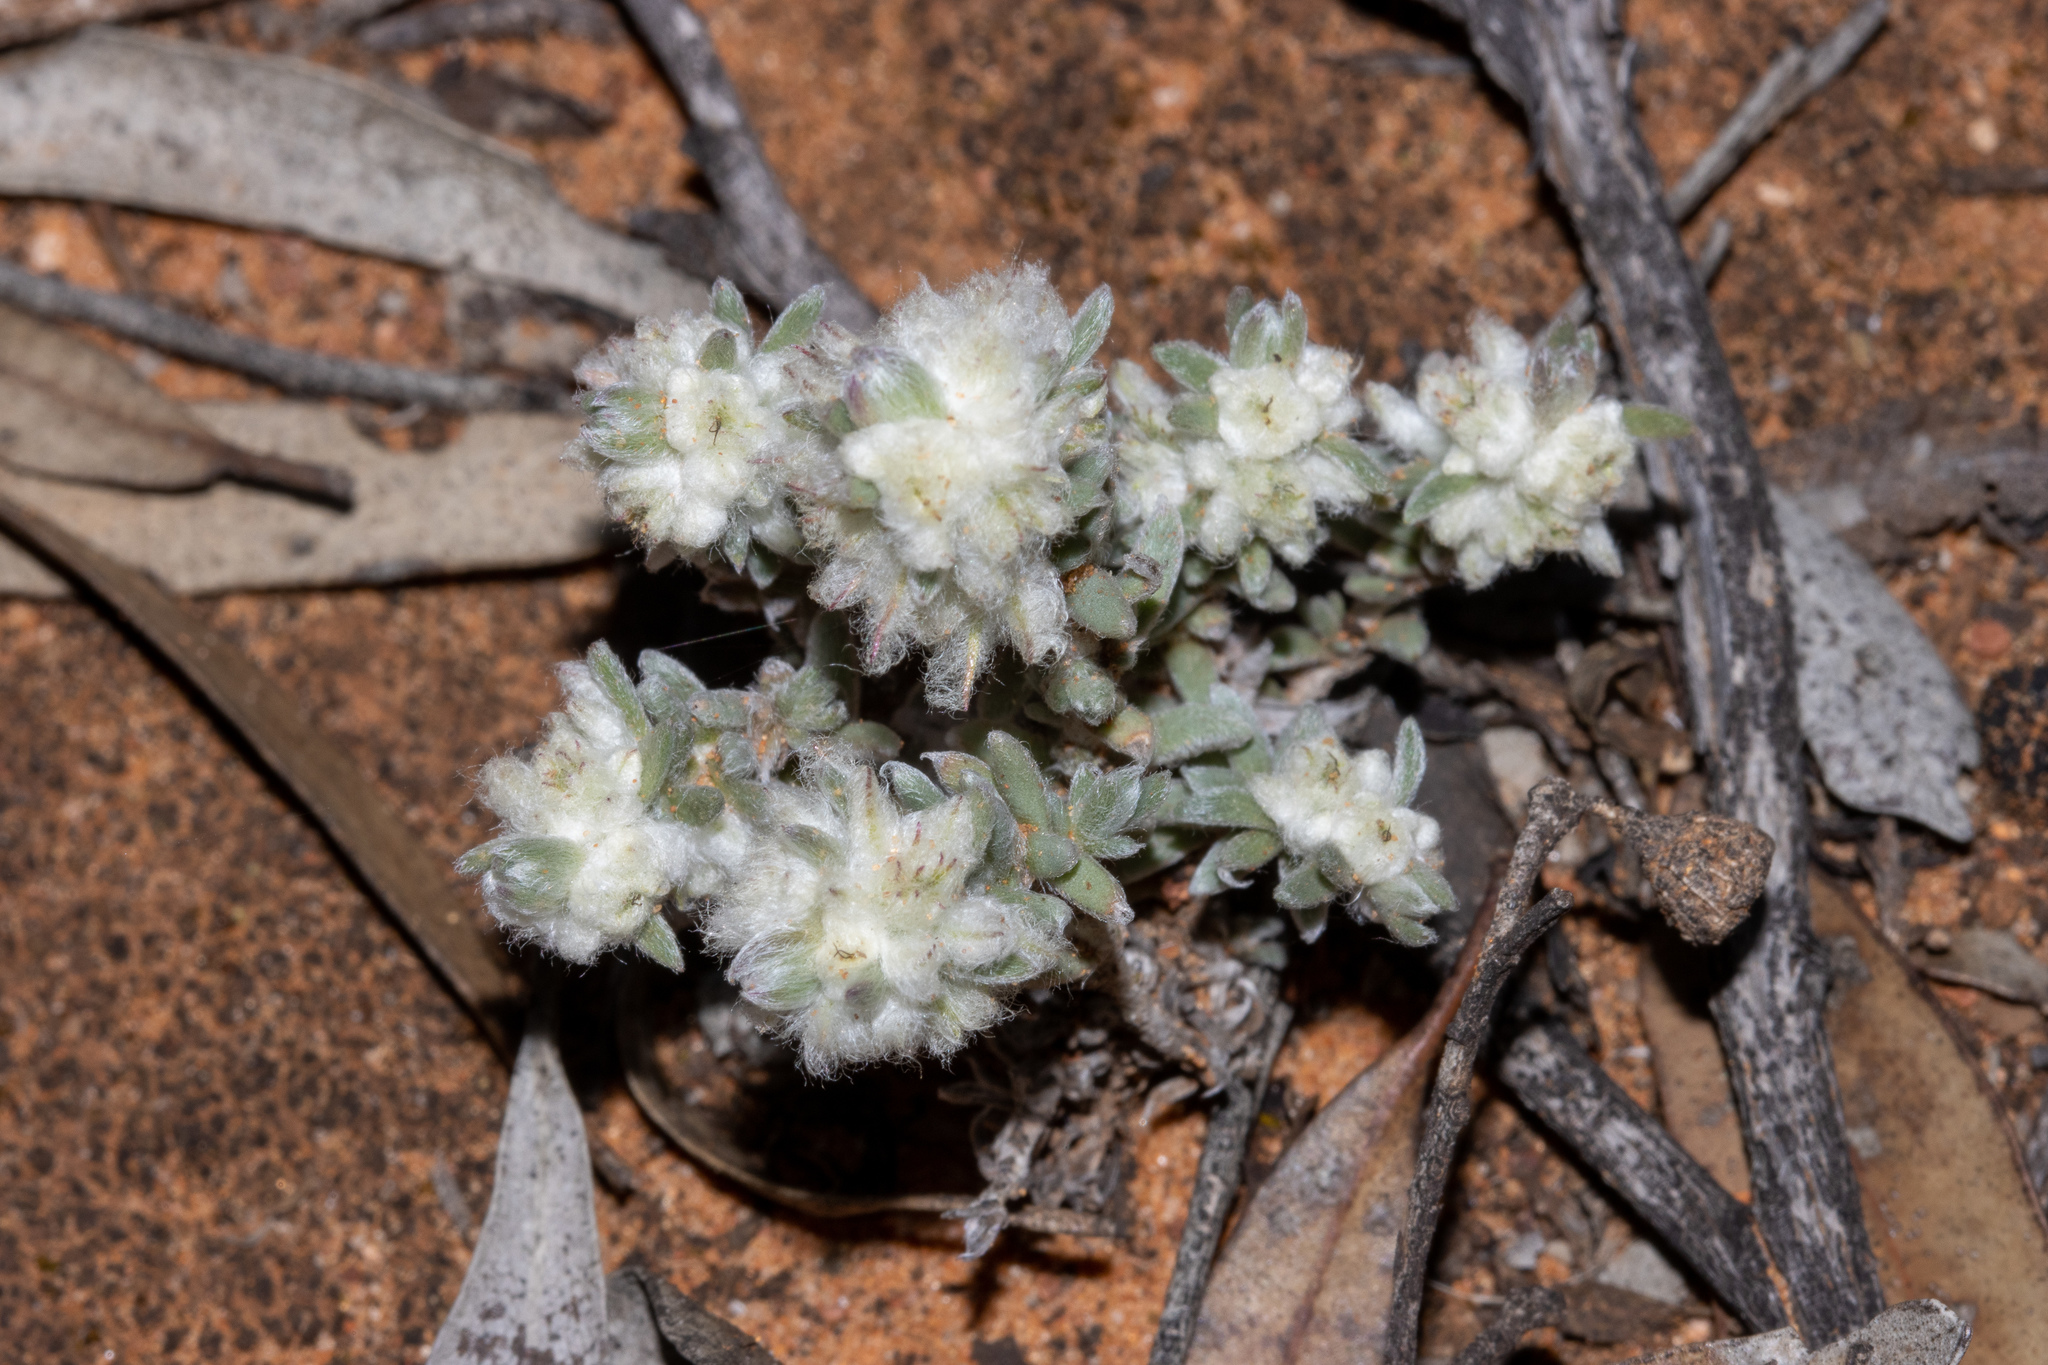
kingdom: Plantae
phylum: Tracheophyta
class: Magnoliopsida
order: Caryophyllales
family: Amaranthaceae
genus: Maireana
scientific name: Maireana sclerolaenoides
